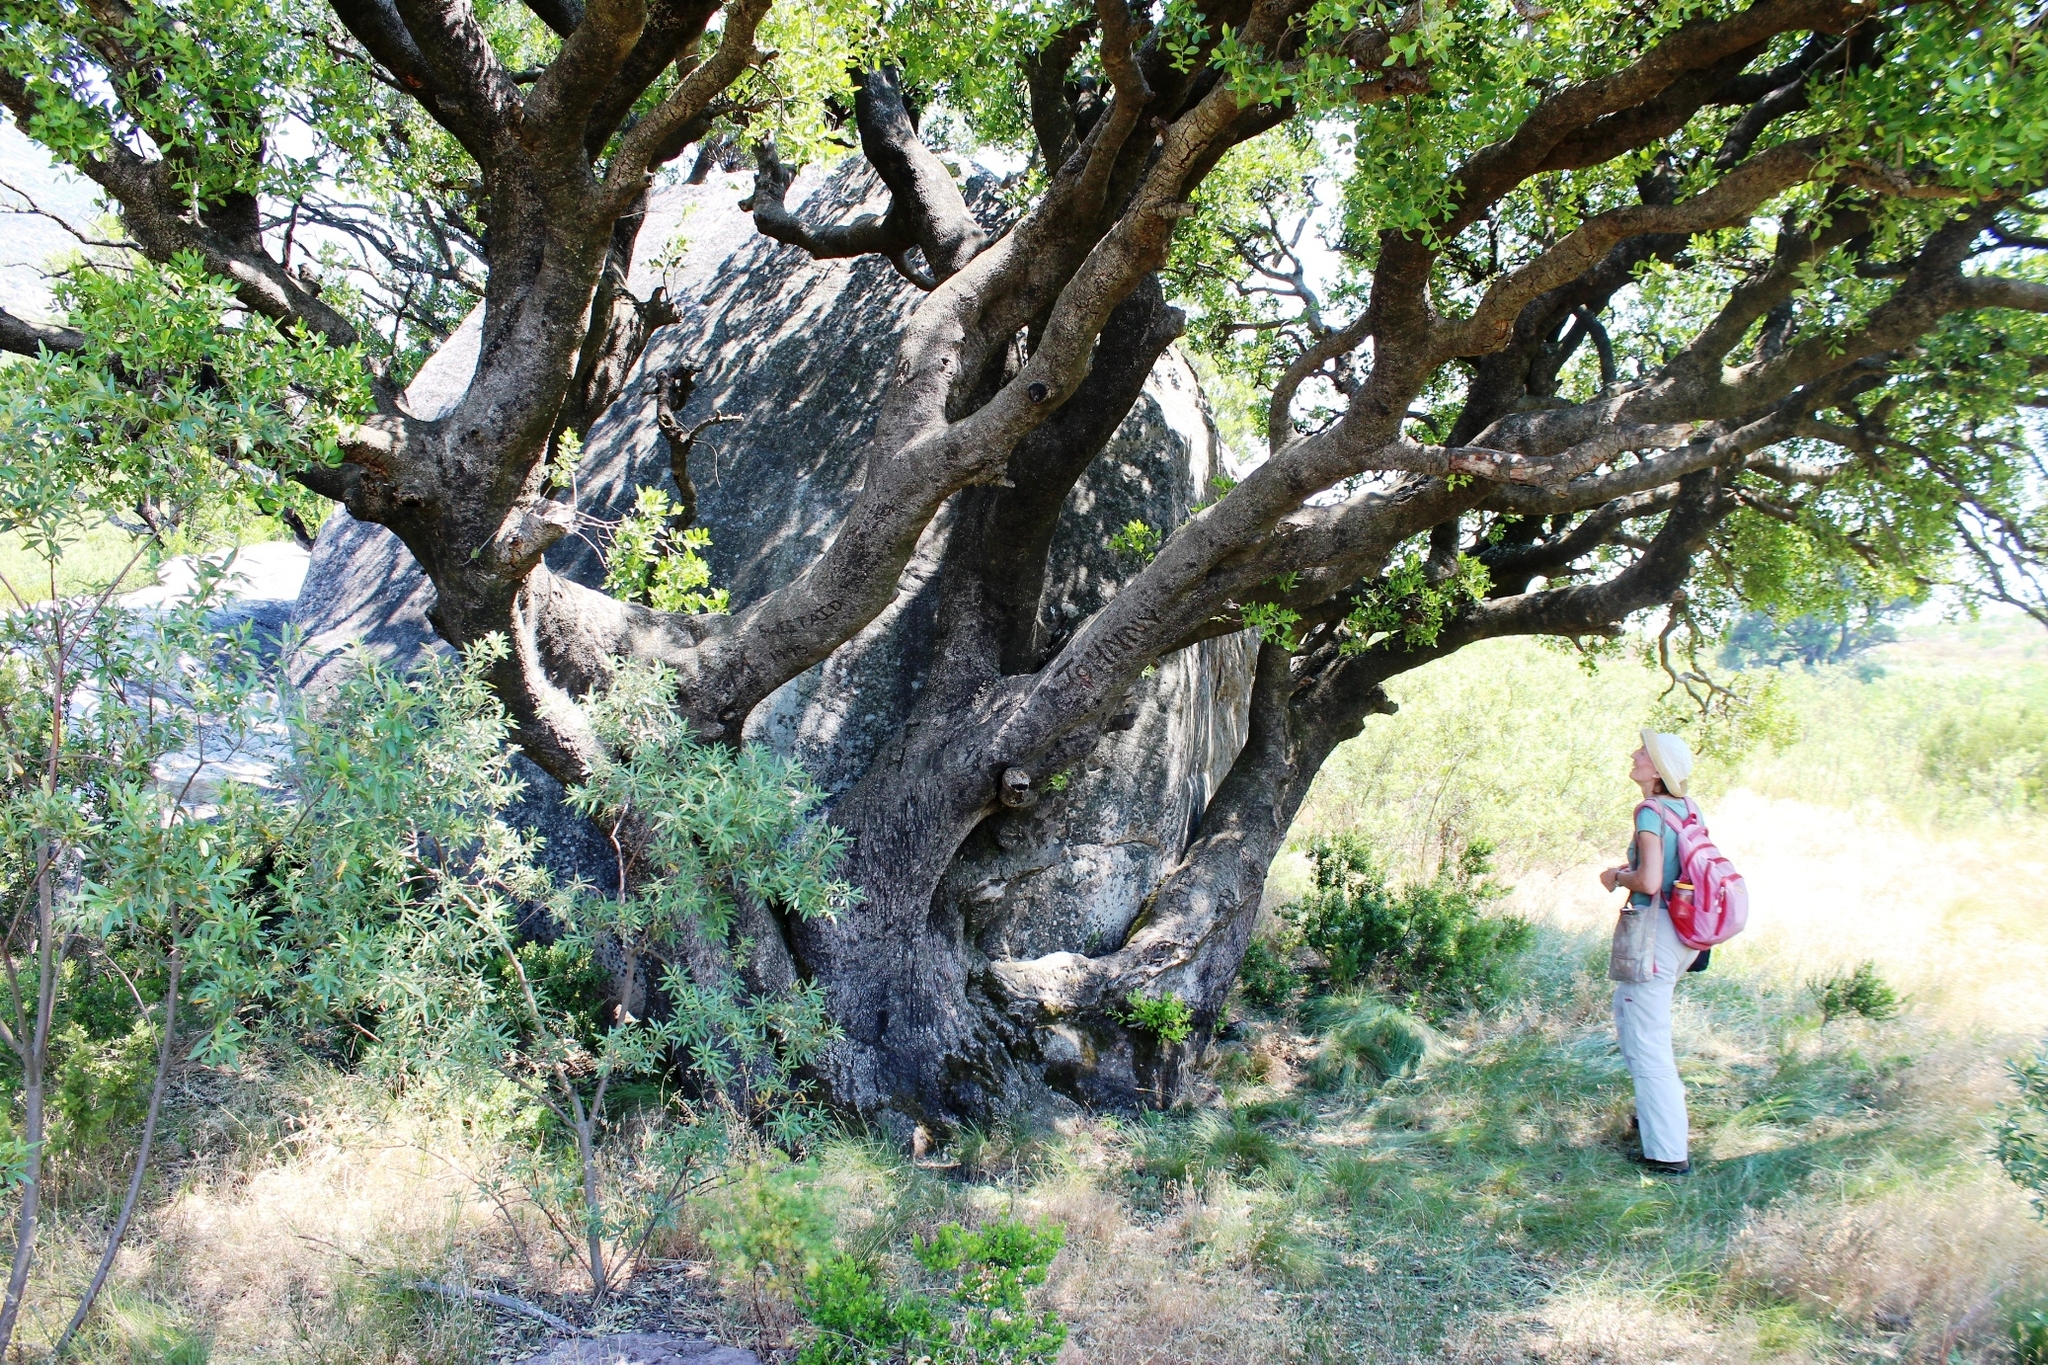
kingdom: Plantae
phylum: Tracheophyta
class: Magnoliopsida
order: Celastrales
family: Celastraceae
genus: Gymnosporia
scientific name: Gymnosporia laurina
